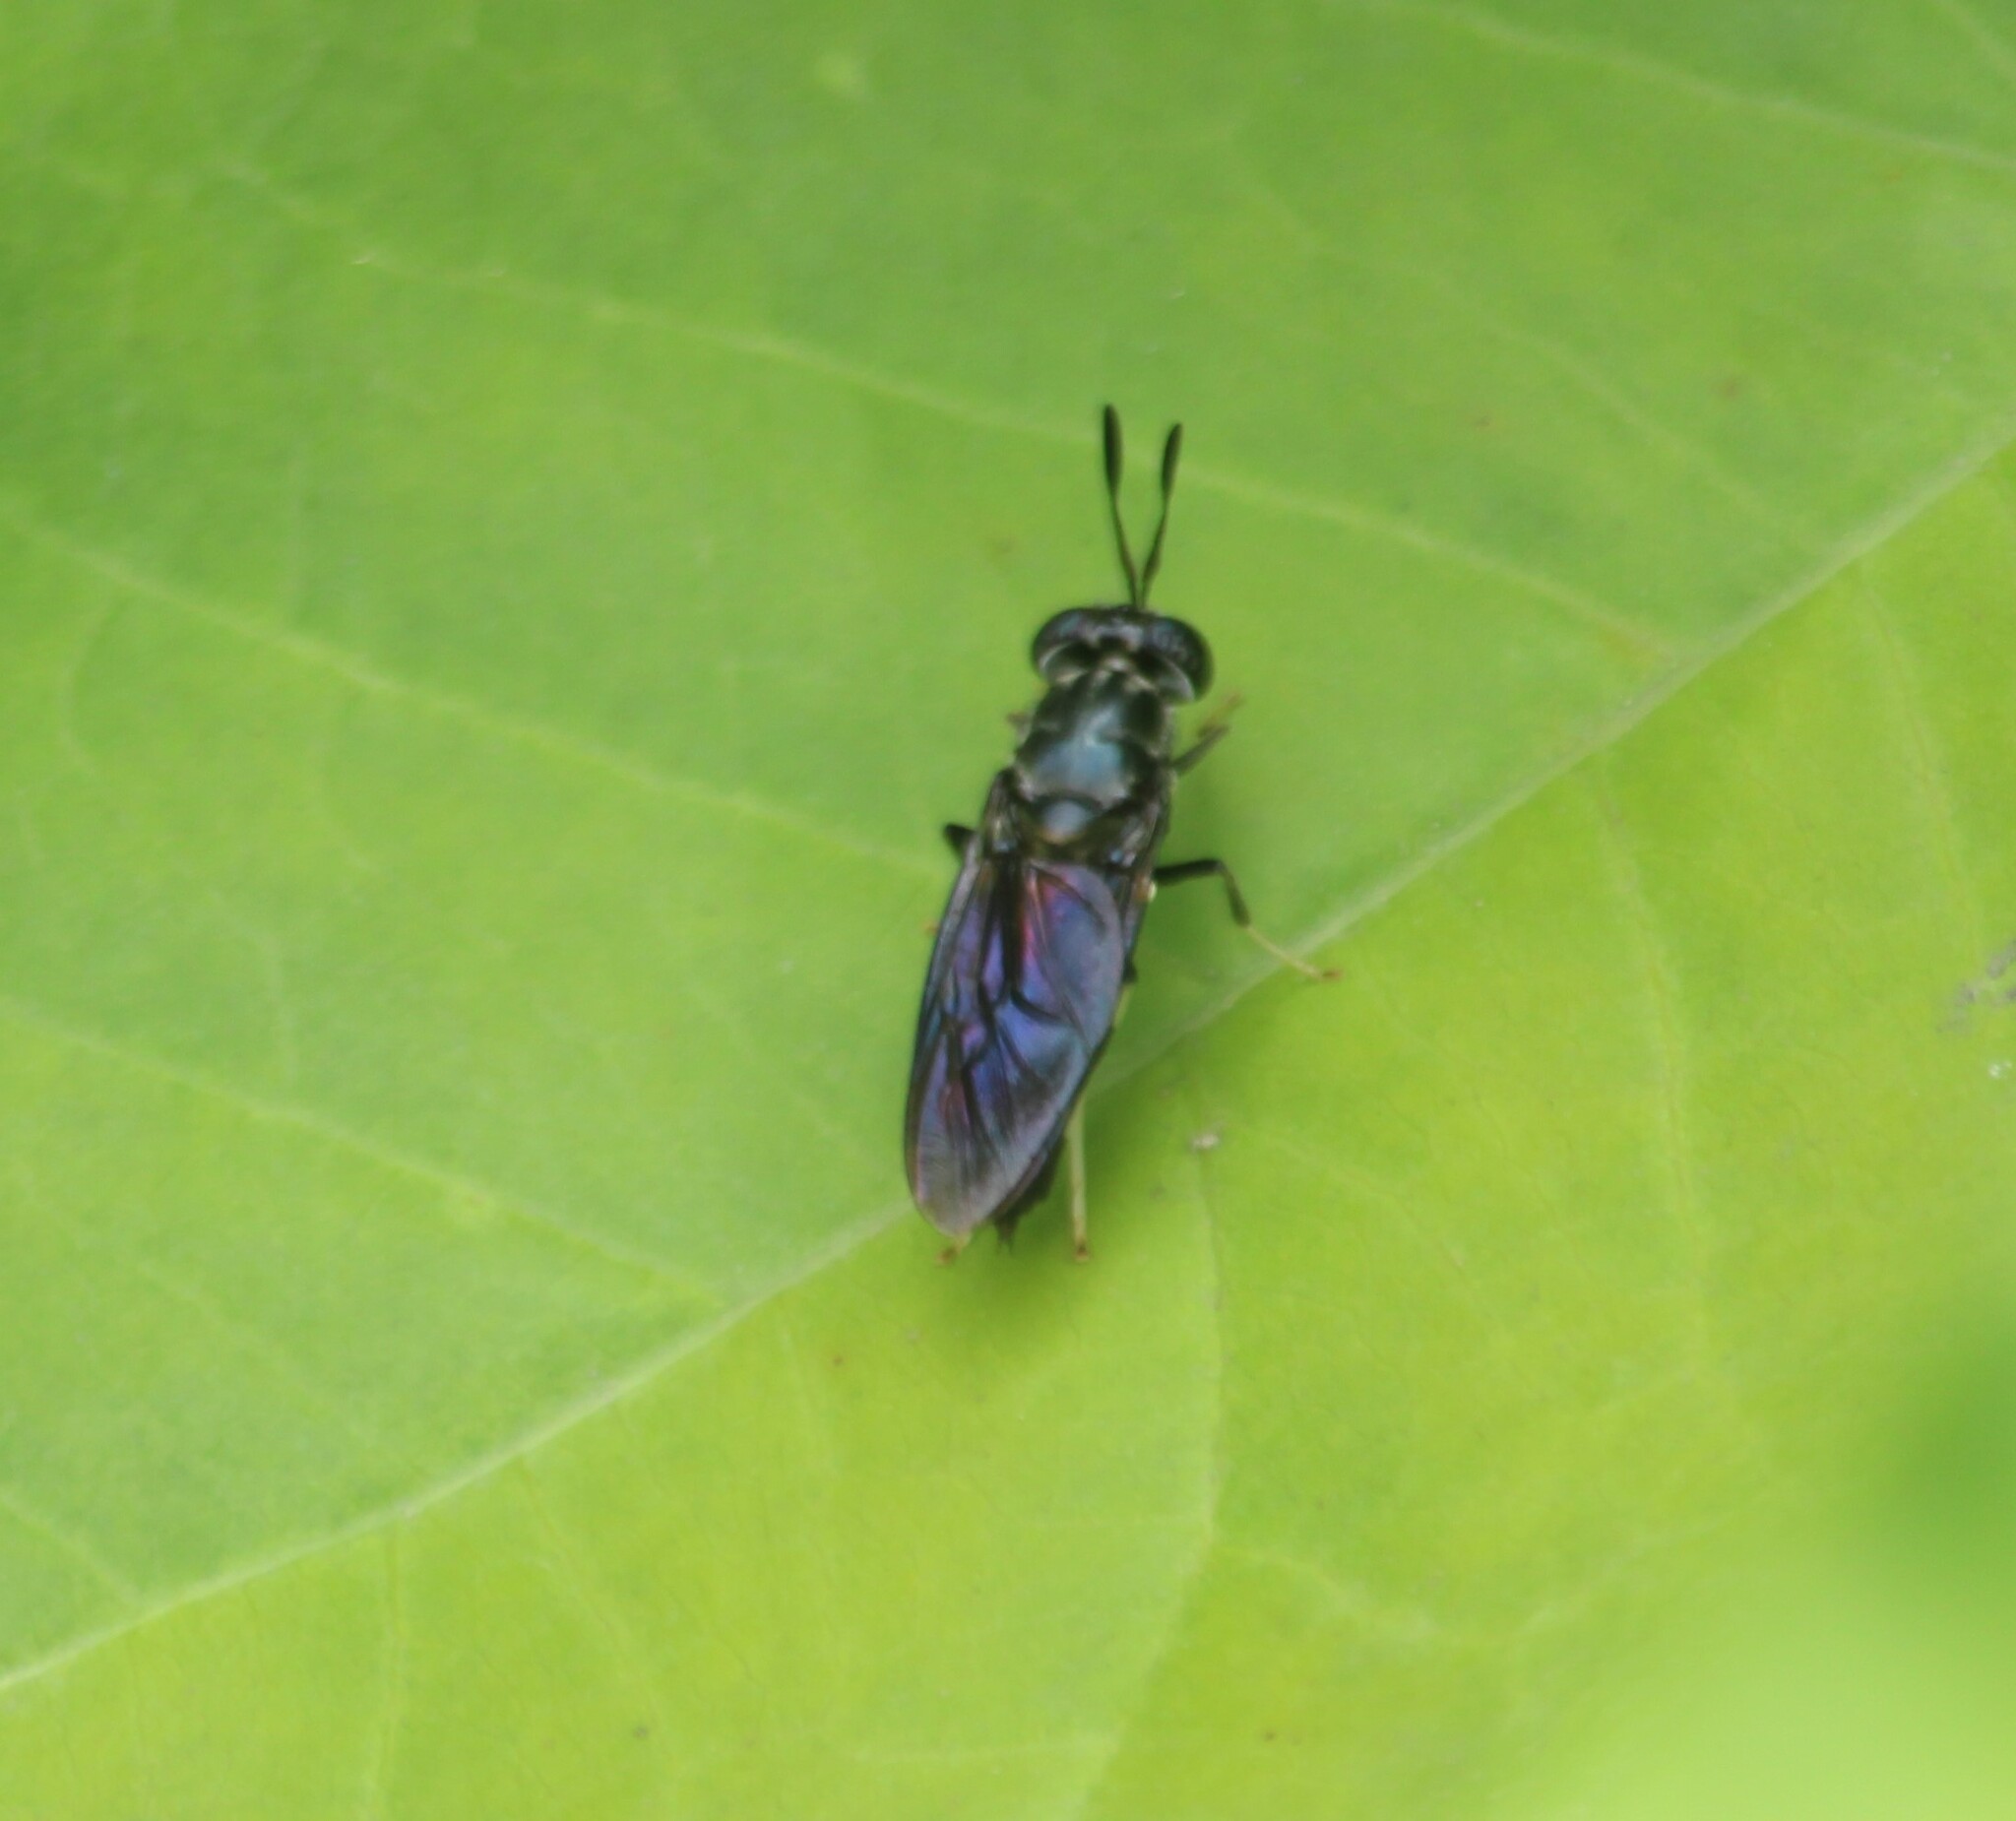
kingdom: Animalia
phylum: Arthropoda
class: Insecta
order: Diptera
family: Stratiomyidae
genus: Hermetia
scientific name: Hermetia illucens
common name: Black soldier fly
